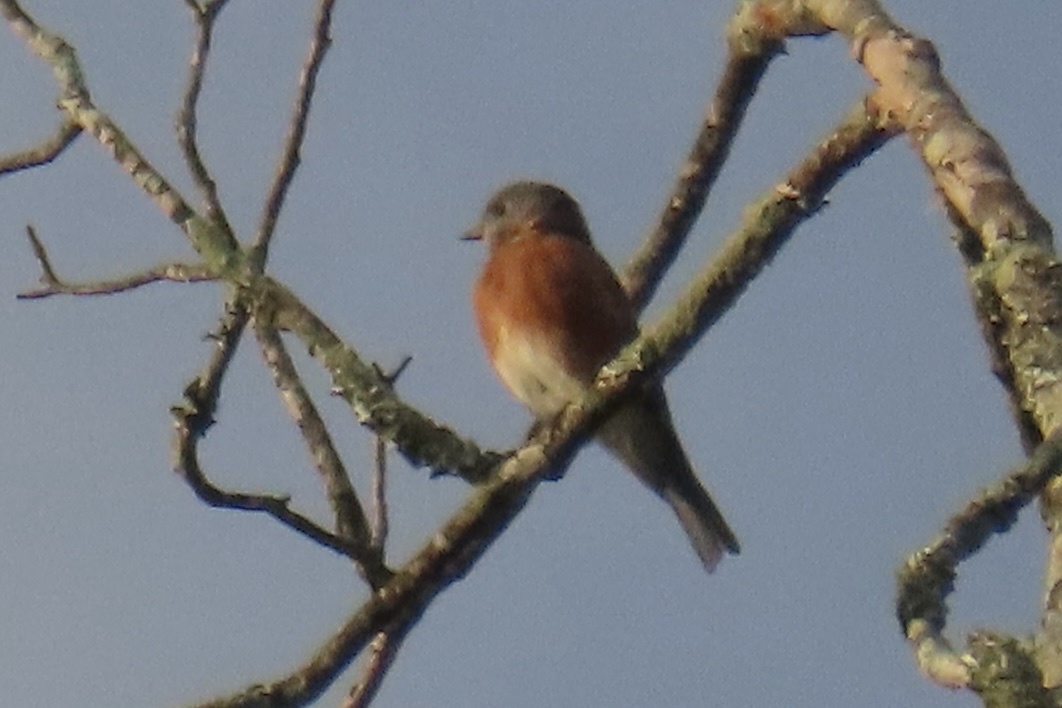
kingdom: Animalia
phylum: Chordata
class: Aves
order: Passeriformes
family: Turdidae
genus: Sialia
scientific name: Sialia sialis
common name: Eastern bluebird
